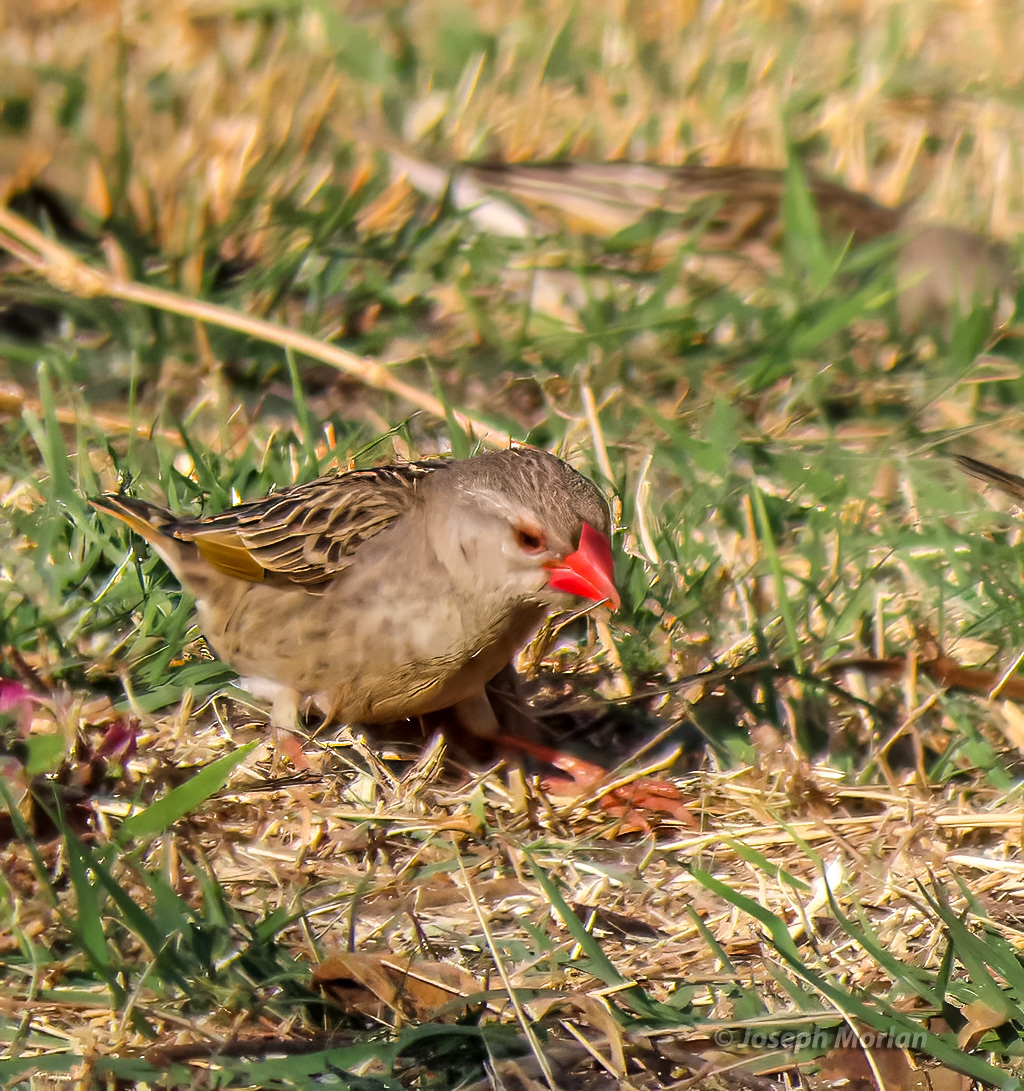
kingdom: Animalia
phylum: Chordata
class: Aves
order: Passeriformes
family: Ploceidae
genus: Quelea
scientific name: Quelea quelea
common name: Red-billed quelea
